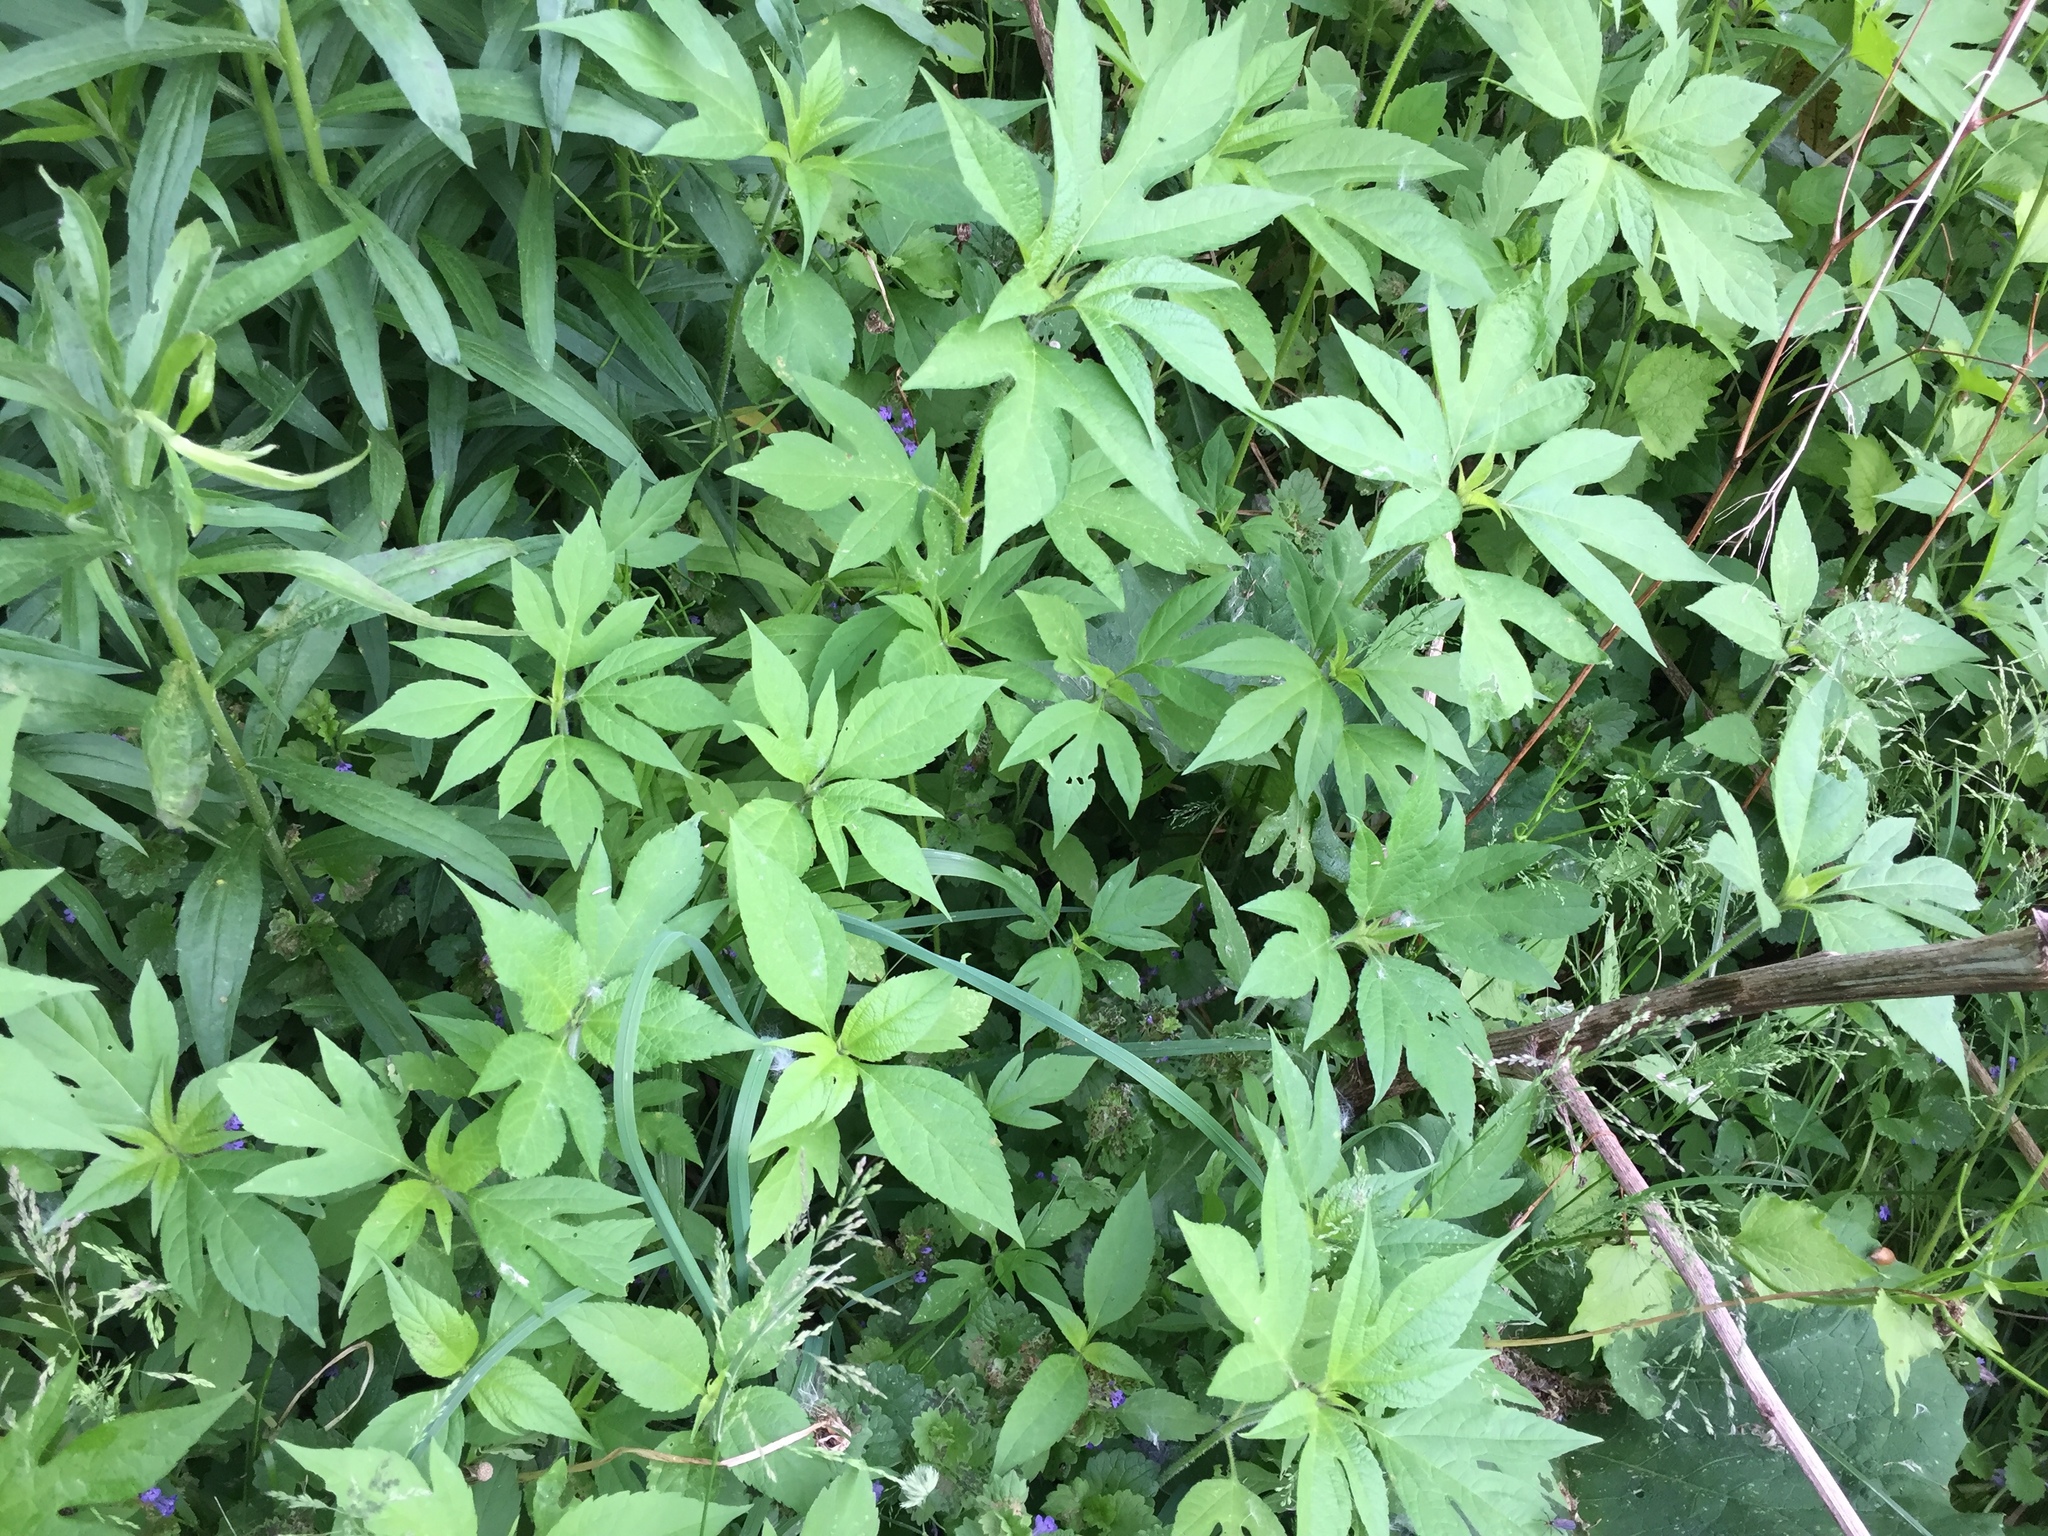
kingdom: Plantae
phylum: Tracheophyta
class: Magnoliopsida
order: Asterales
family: Asteraceae
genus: Ambrosia
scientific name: Ambrosia trifida
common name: Giant ragweed
